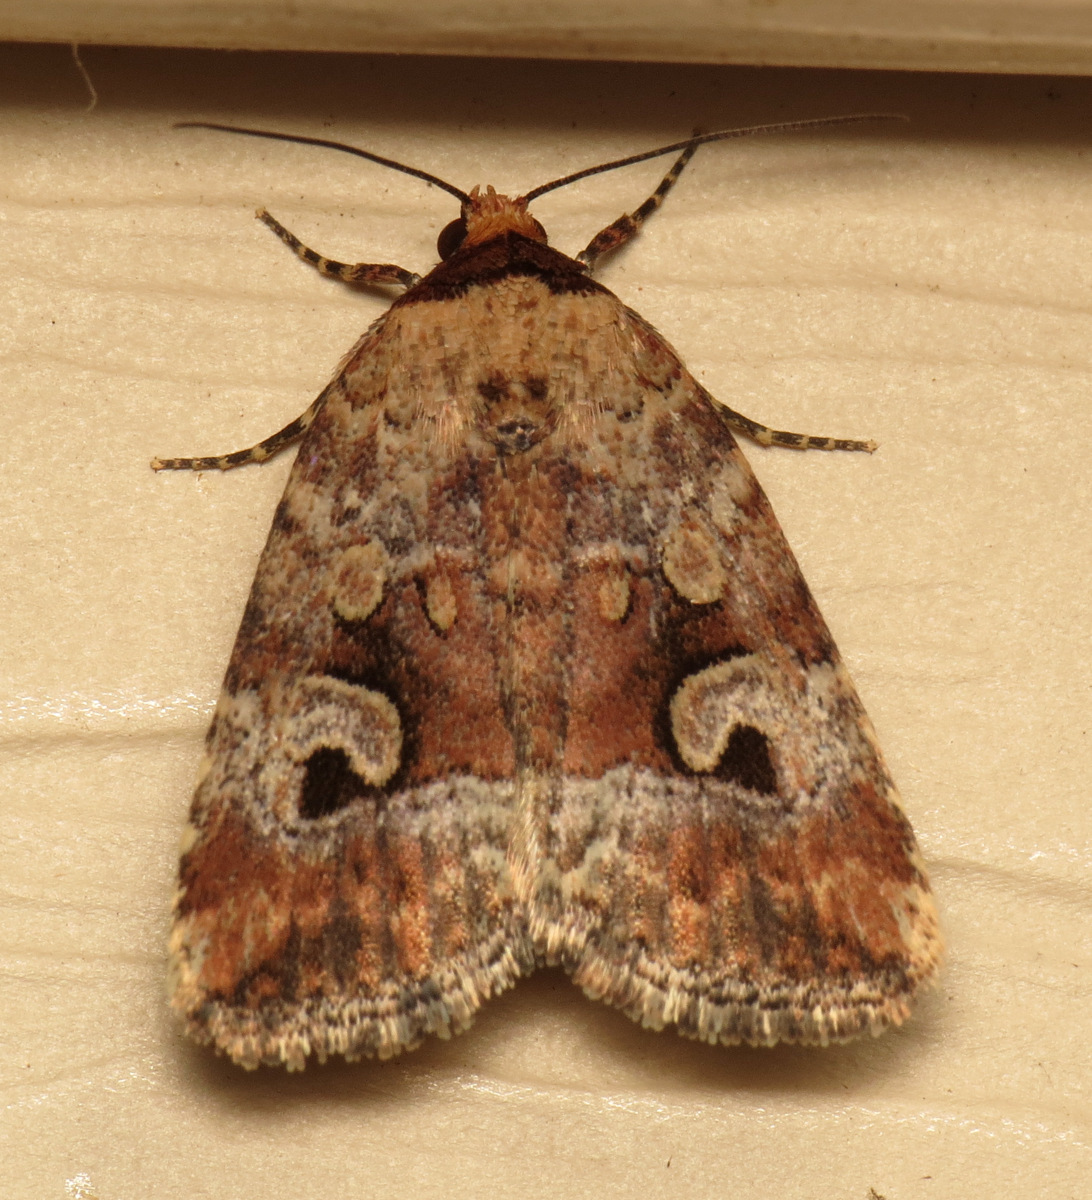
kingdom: Animalia
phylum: Arthropoda
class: Insecta
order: Lepidoptera
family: Noctuidae
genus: Elaphria
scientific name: Elaphria alapallida
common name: Pale-winged midget
